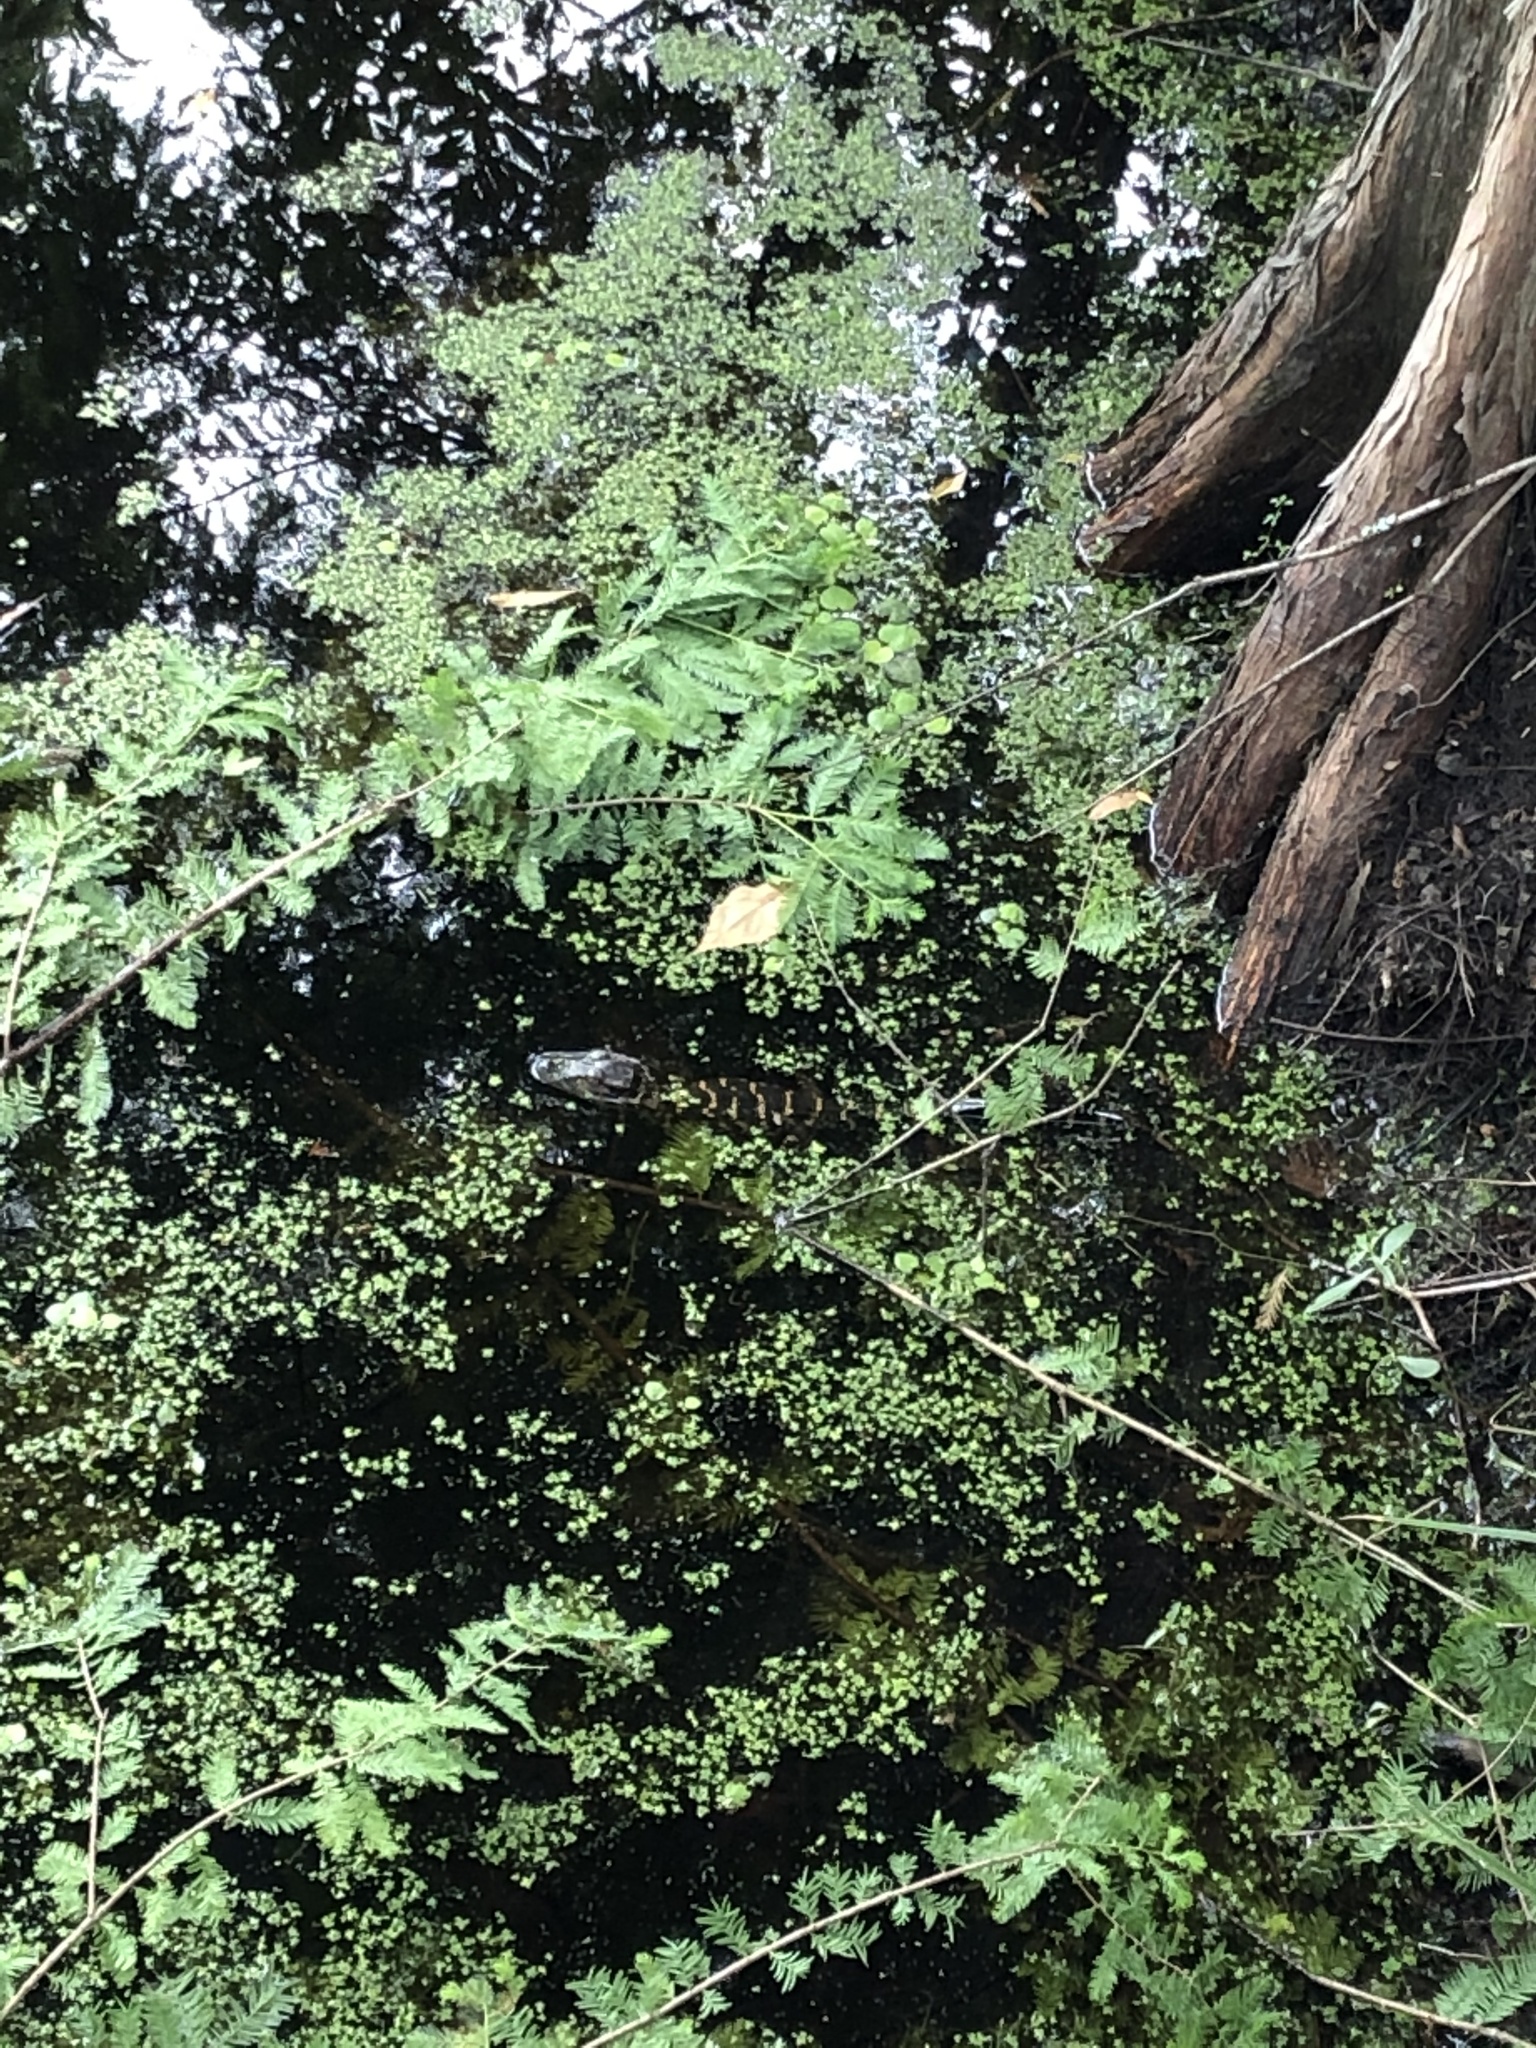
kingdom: Animalia
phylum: Chordata
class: Crocodylia
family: Alligatoridae
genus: Alligator
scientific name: Alligator mississippiensis
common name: American alligator
